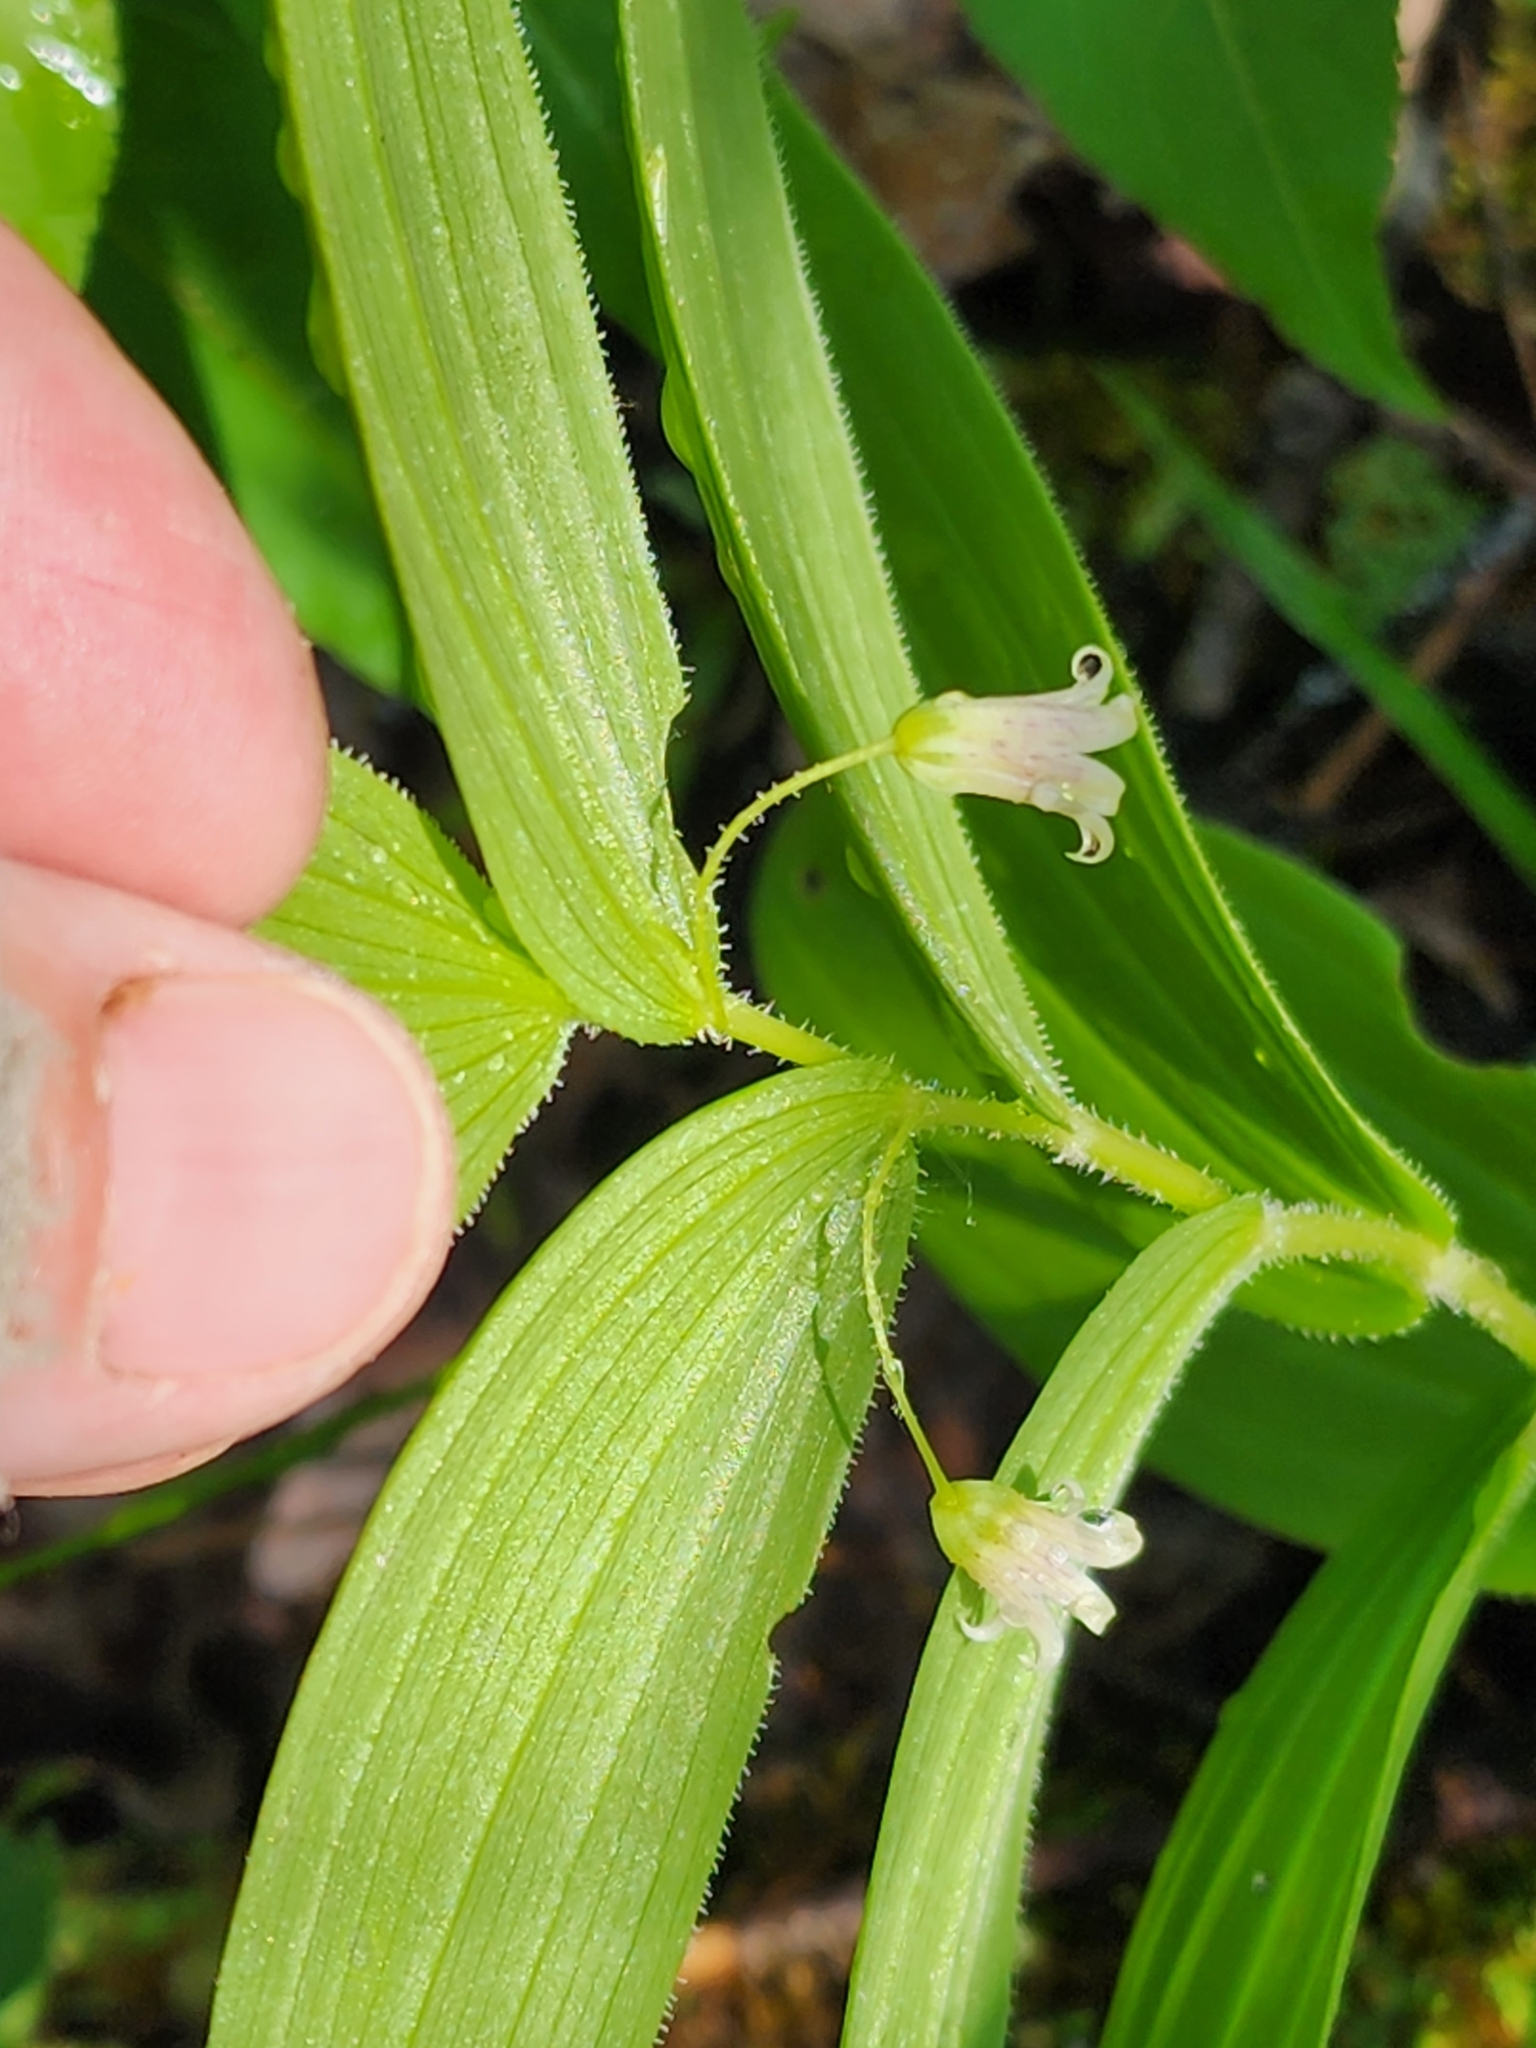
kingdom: Plantae
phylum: Tracheophyta
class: Liliopsida
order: Liliales
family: Liliaceae
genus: Streptopus
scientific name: Streptopus lanceolatus
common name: Rose mandarin
